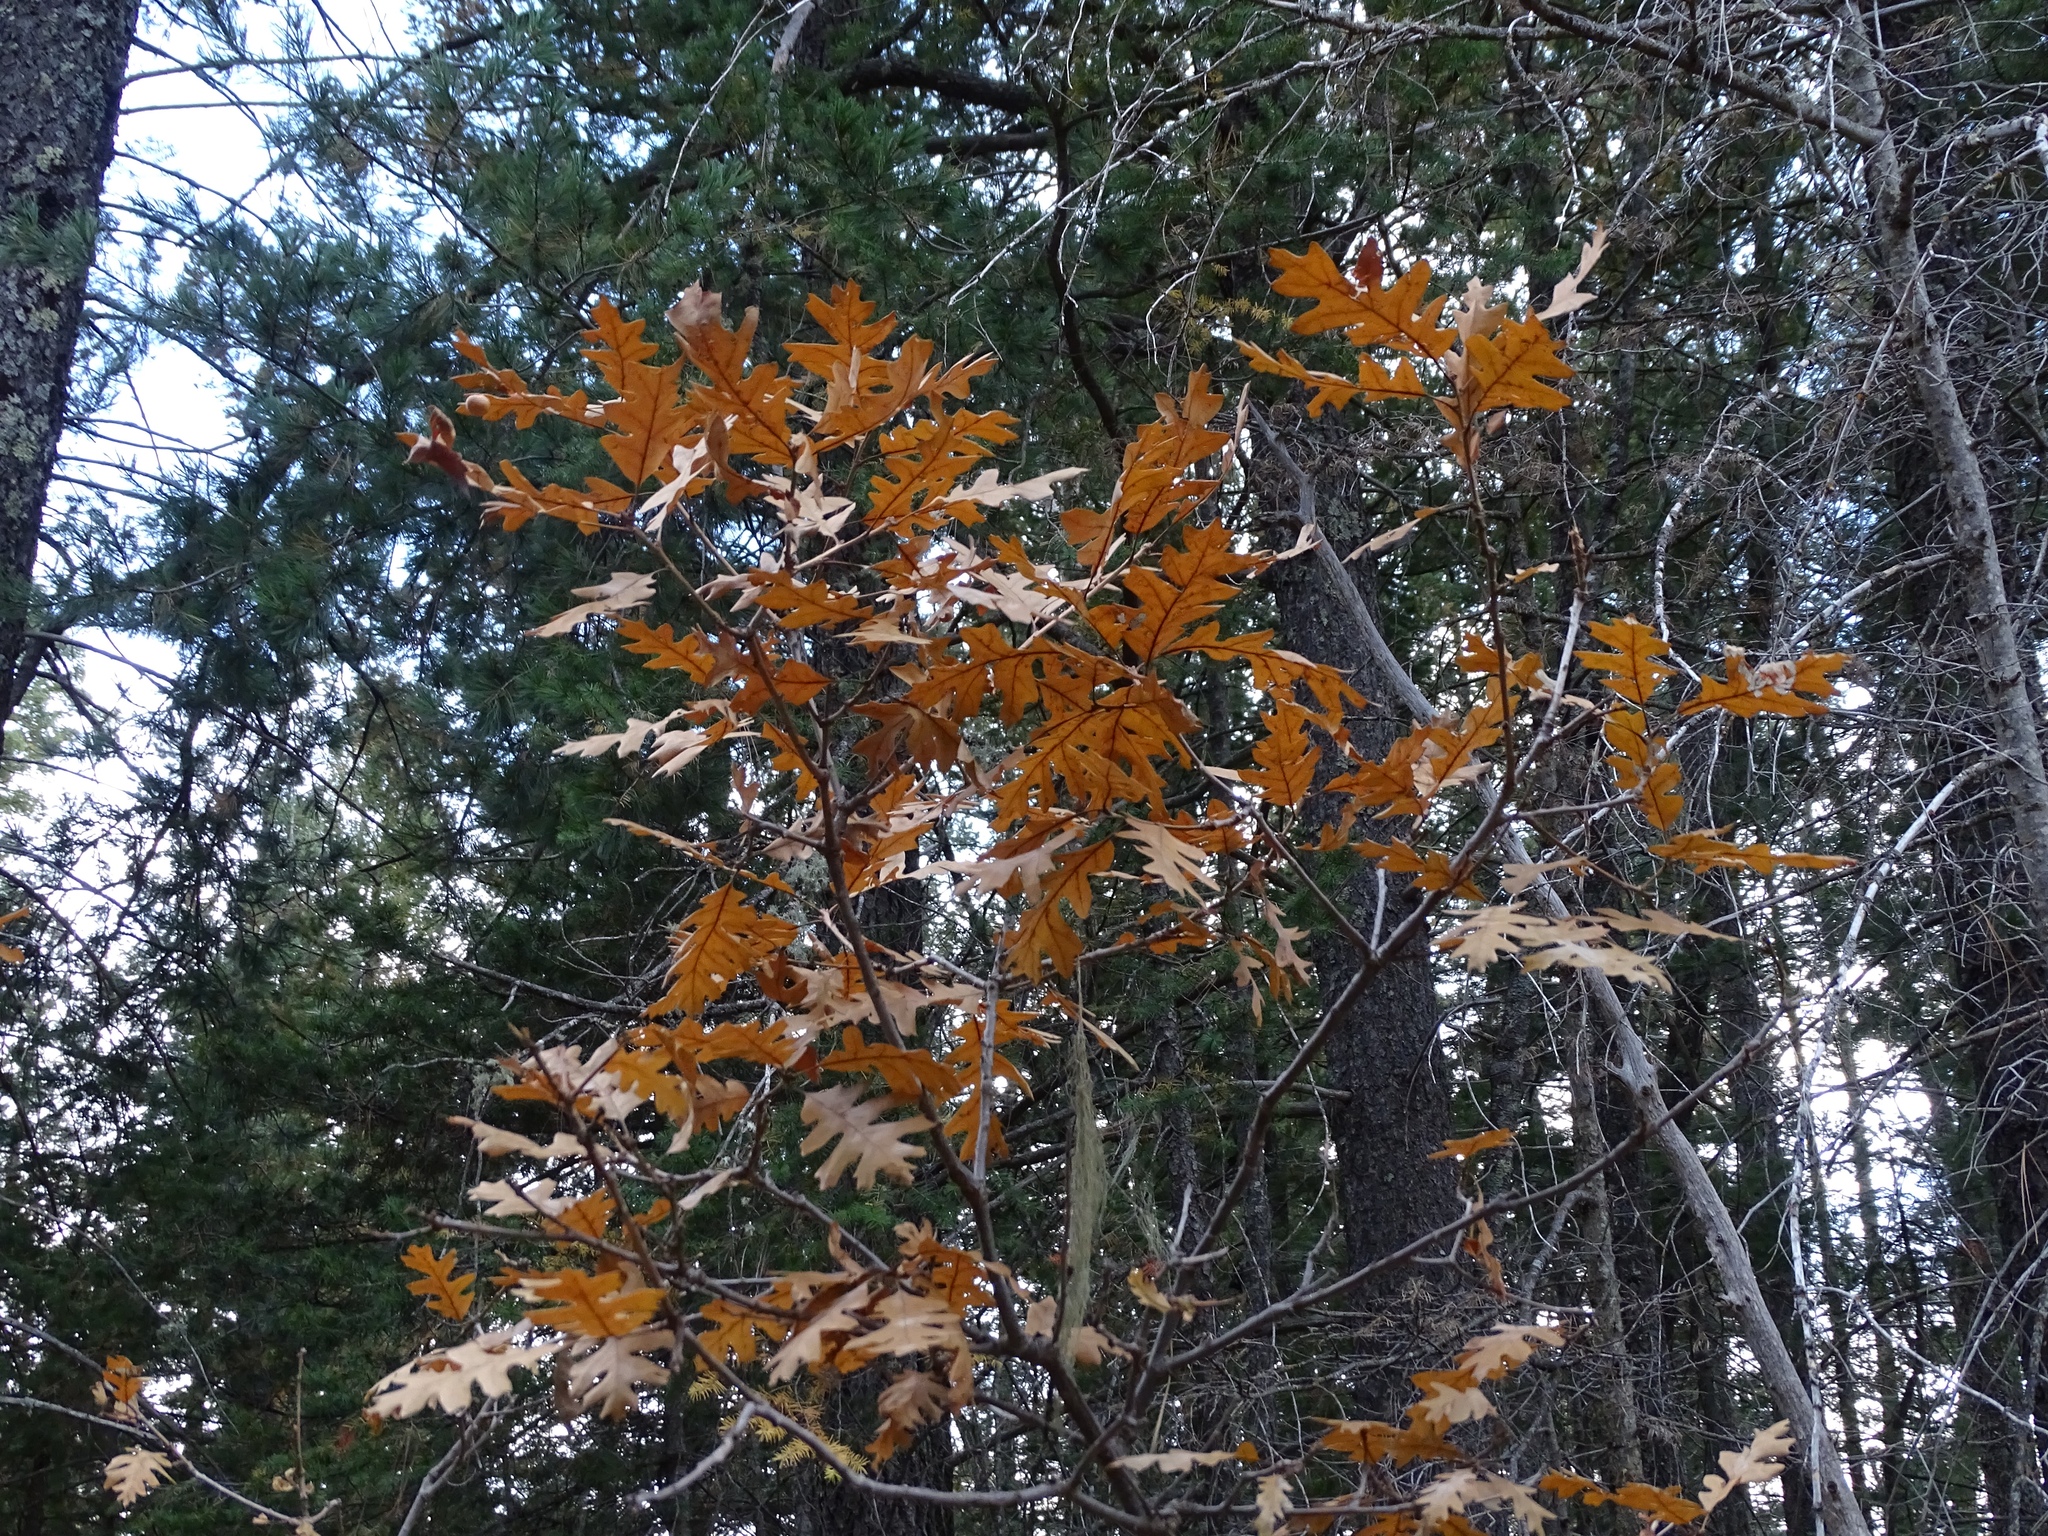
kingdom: Plantae
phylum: Tracheophyta
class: Magnoliopsida
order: Fagales
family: Fagaceae
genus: Quercus
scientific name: Quercus gambelii
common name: Gambel oak
